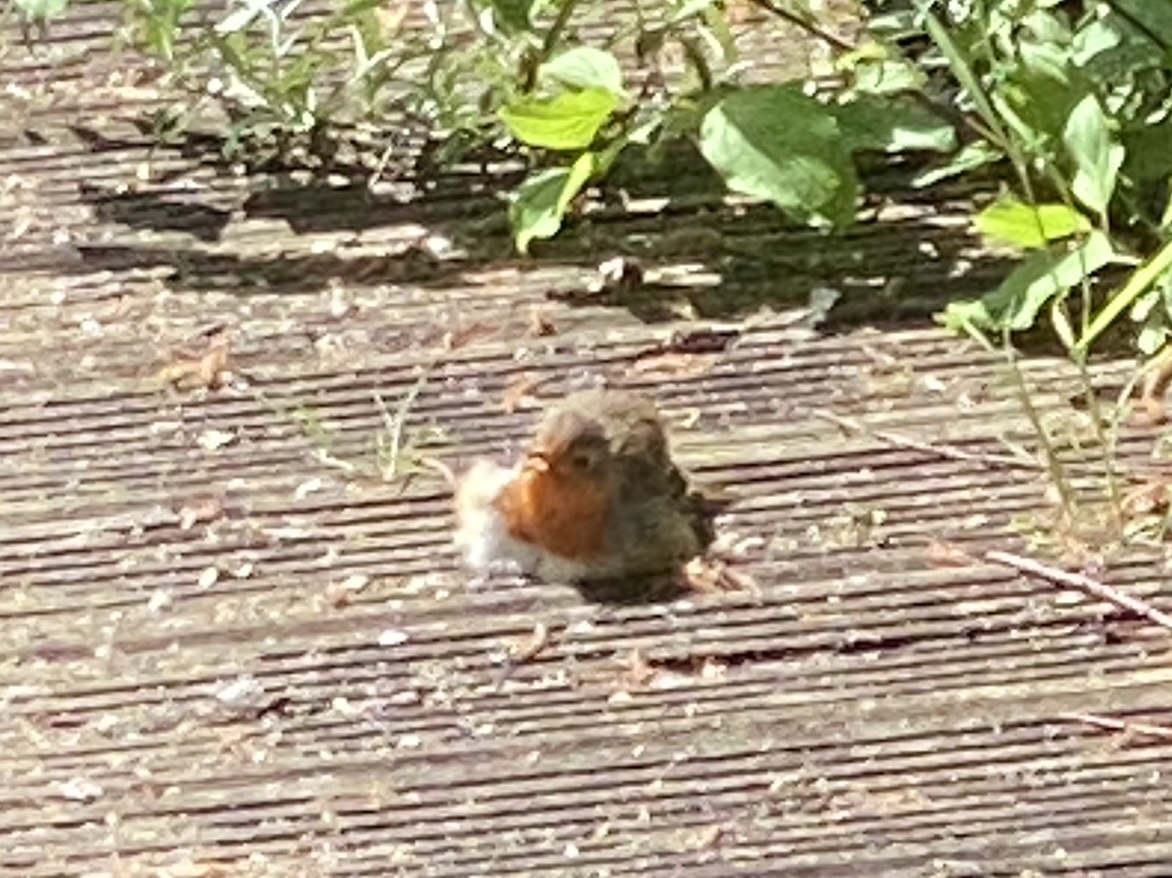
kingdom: Animalia
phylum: Chordata
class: Aves
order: Passeriformes
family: Muscicapidae
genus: Erithacus
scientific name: Erithacus rubecula
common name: European robin
